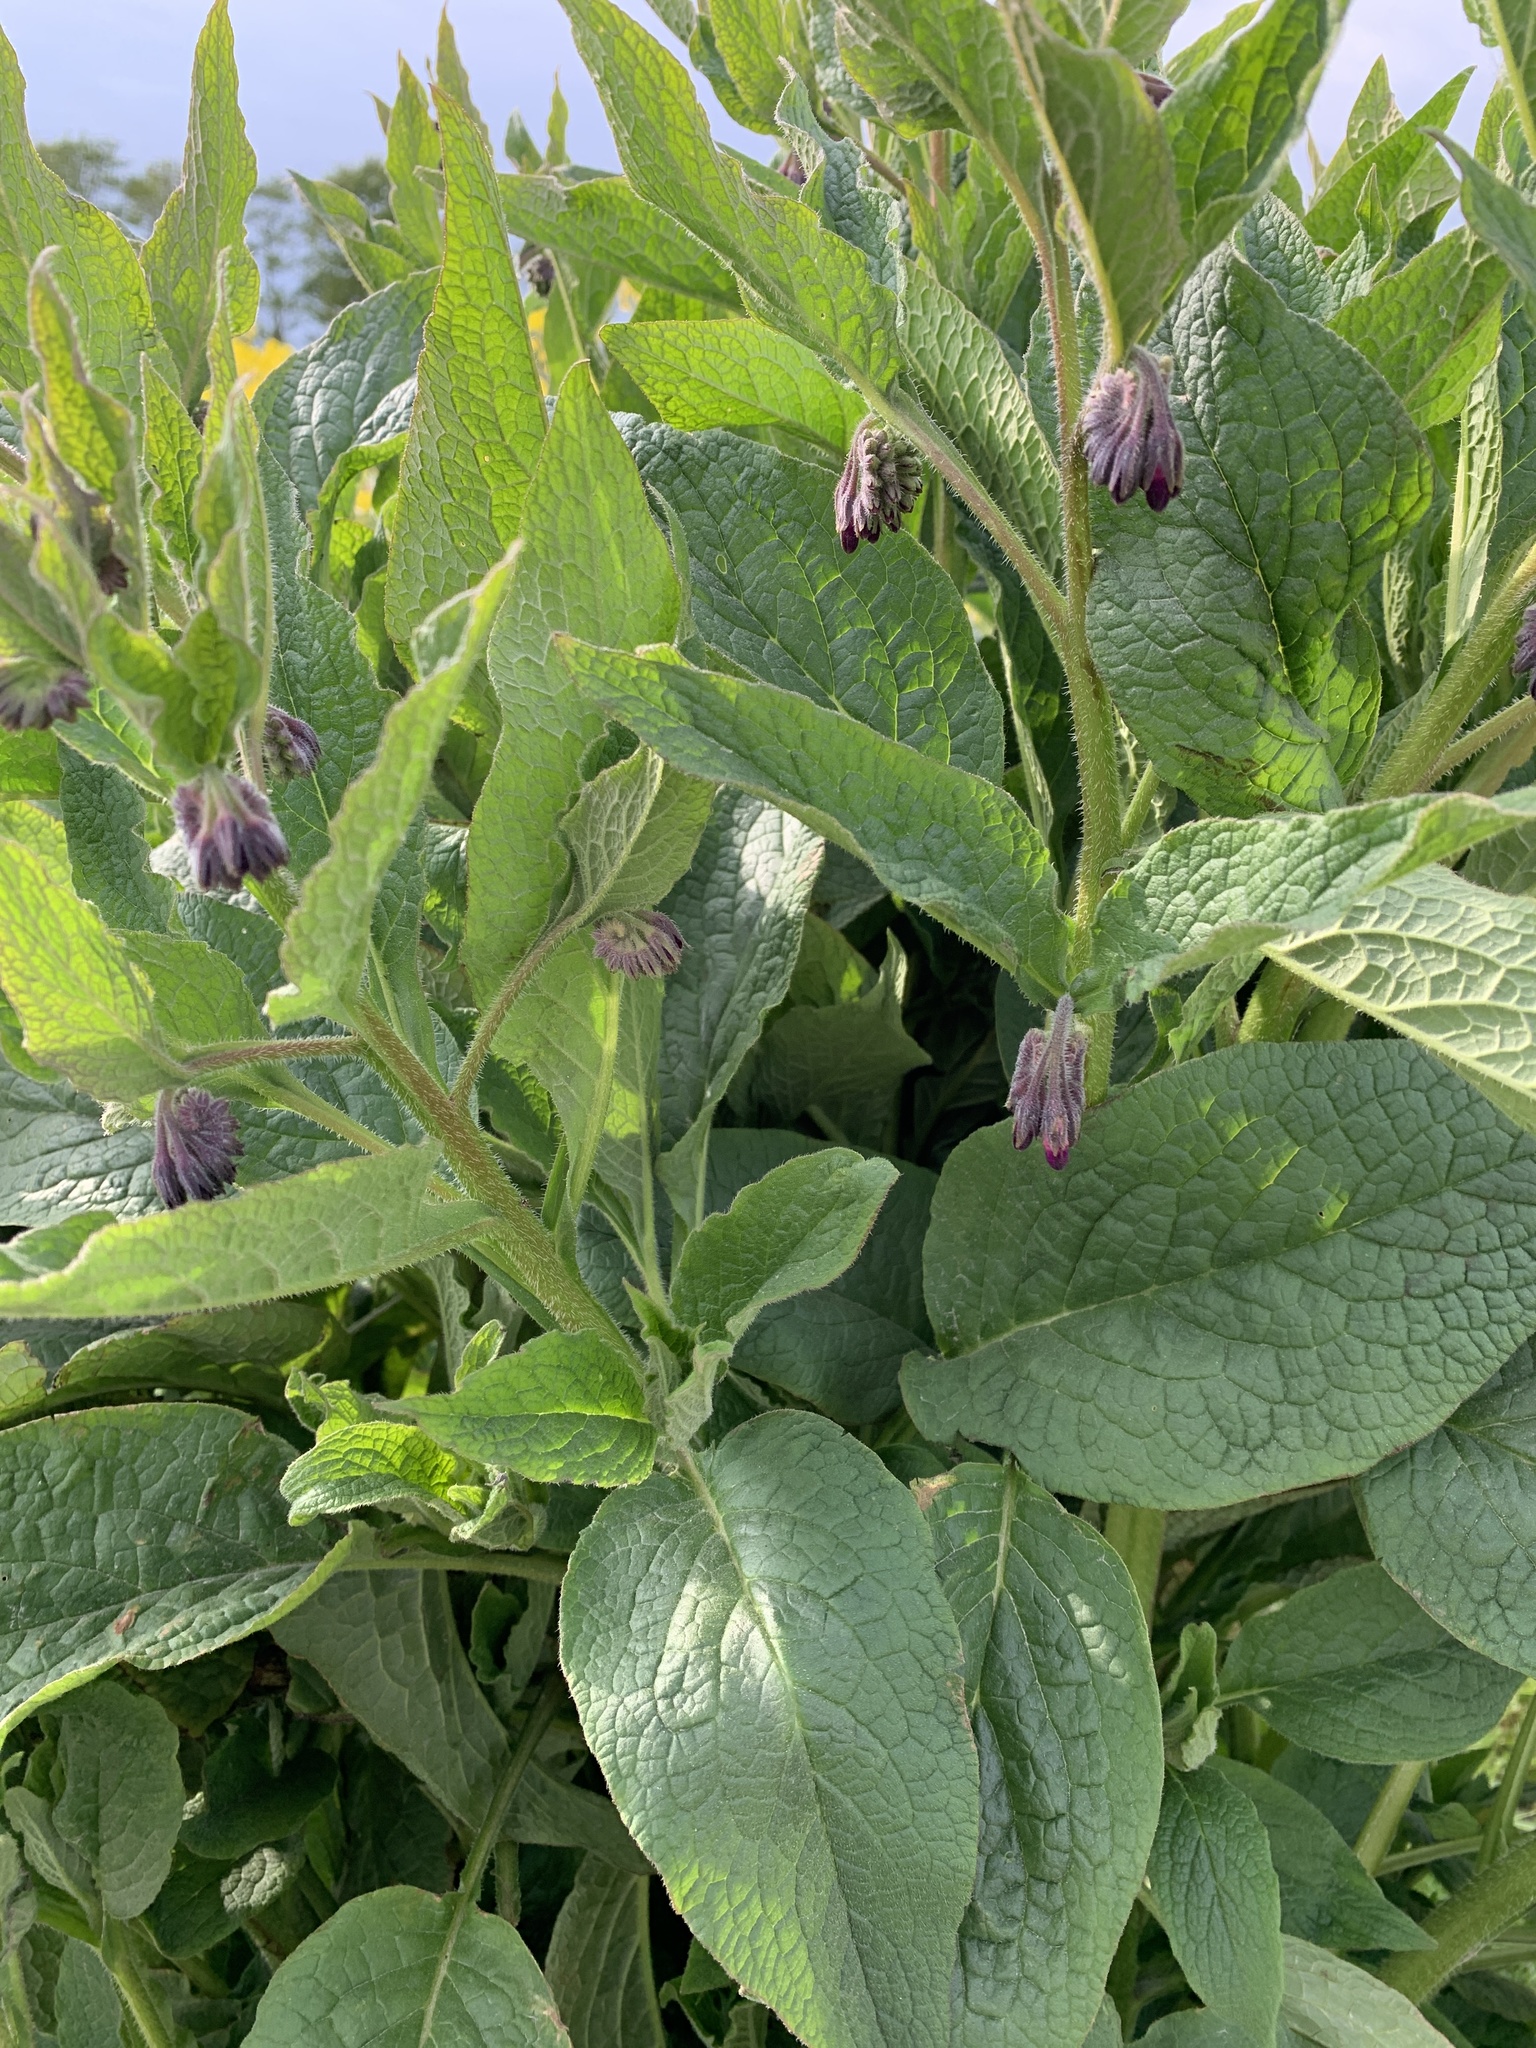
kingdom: Plantae
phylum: Tracheophyta
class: Magnoliopsida
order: Boraginales
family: Boraginaceae
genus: Symphytum
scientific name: Symphytum officinale
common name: Common comfrey
